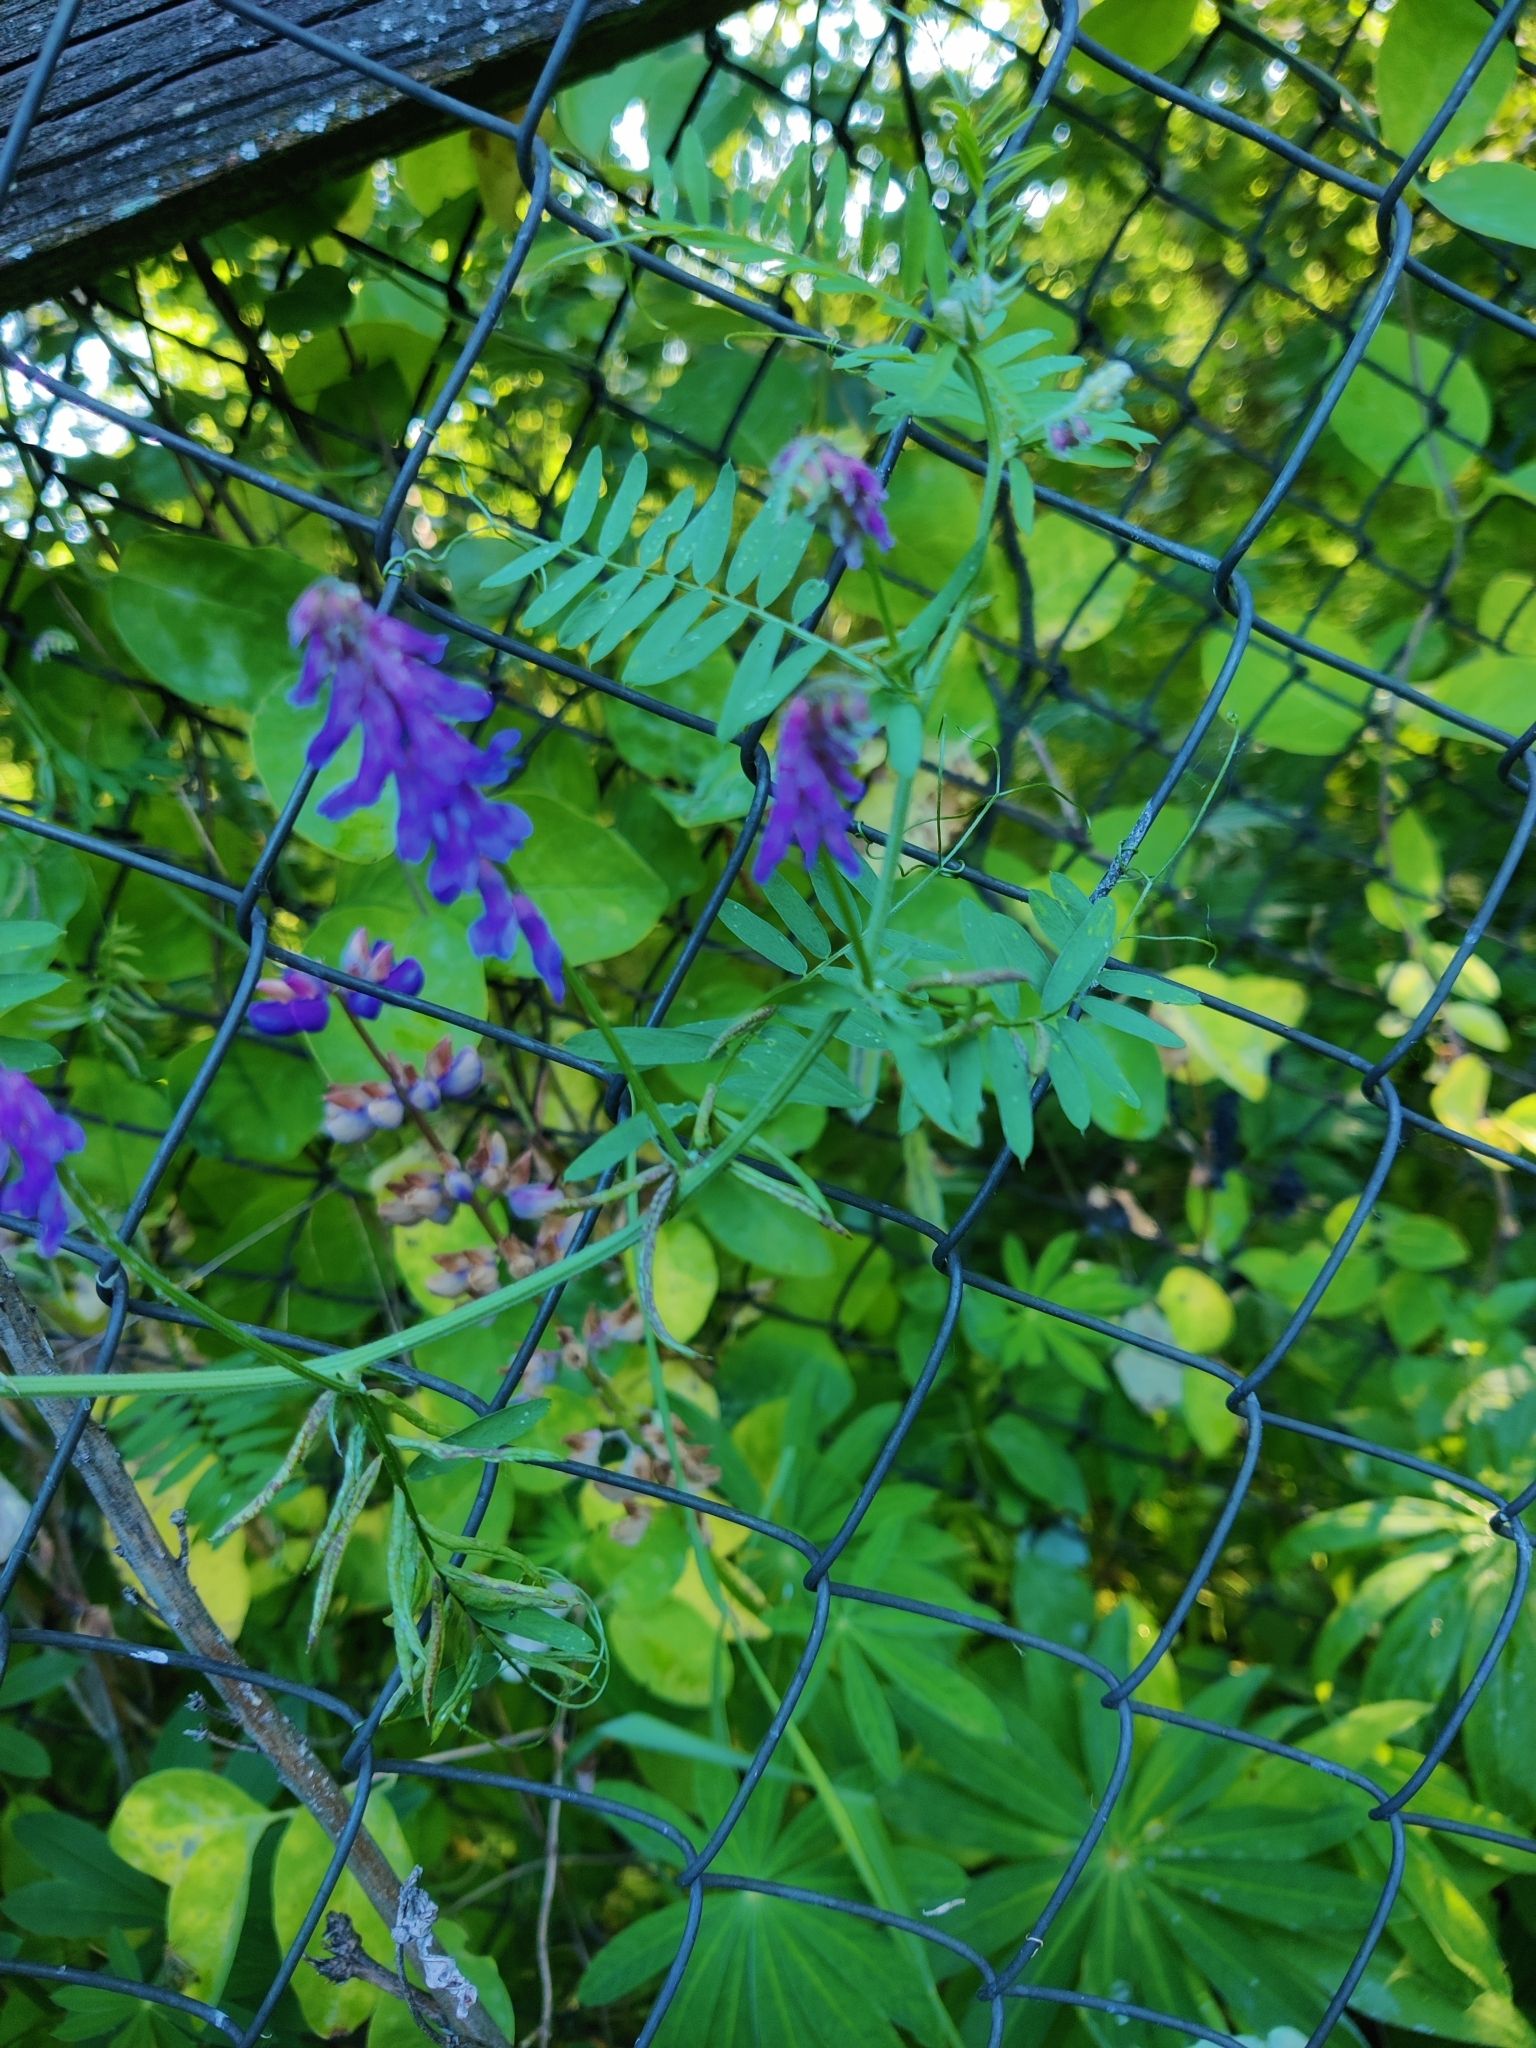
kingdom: Plantae
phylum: Tracheophyta
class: Magnoliopsida
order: Fabales
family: Fabaceae
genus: Vicia
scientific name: Vicia cracca
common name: Bird vetch
